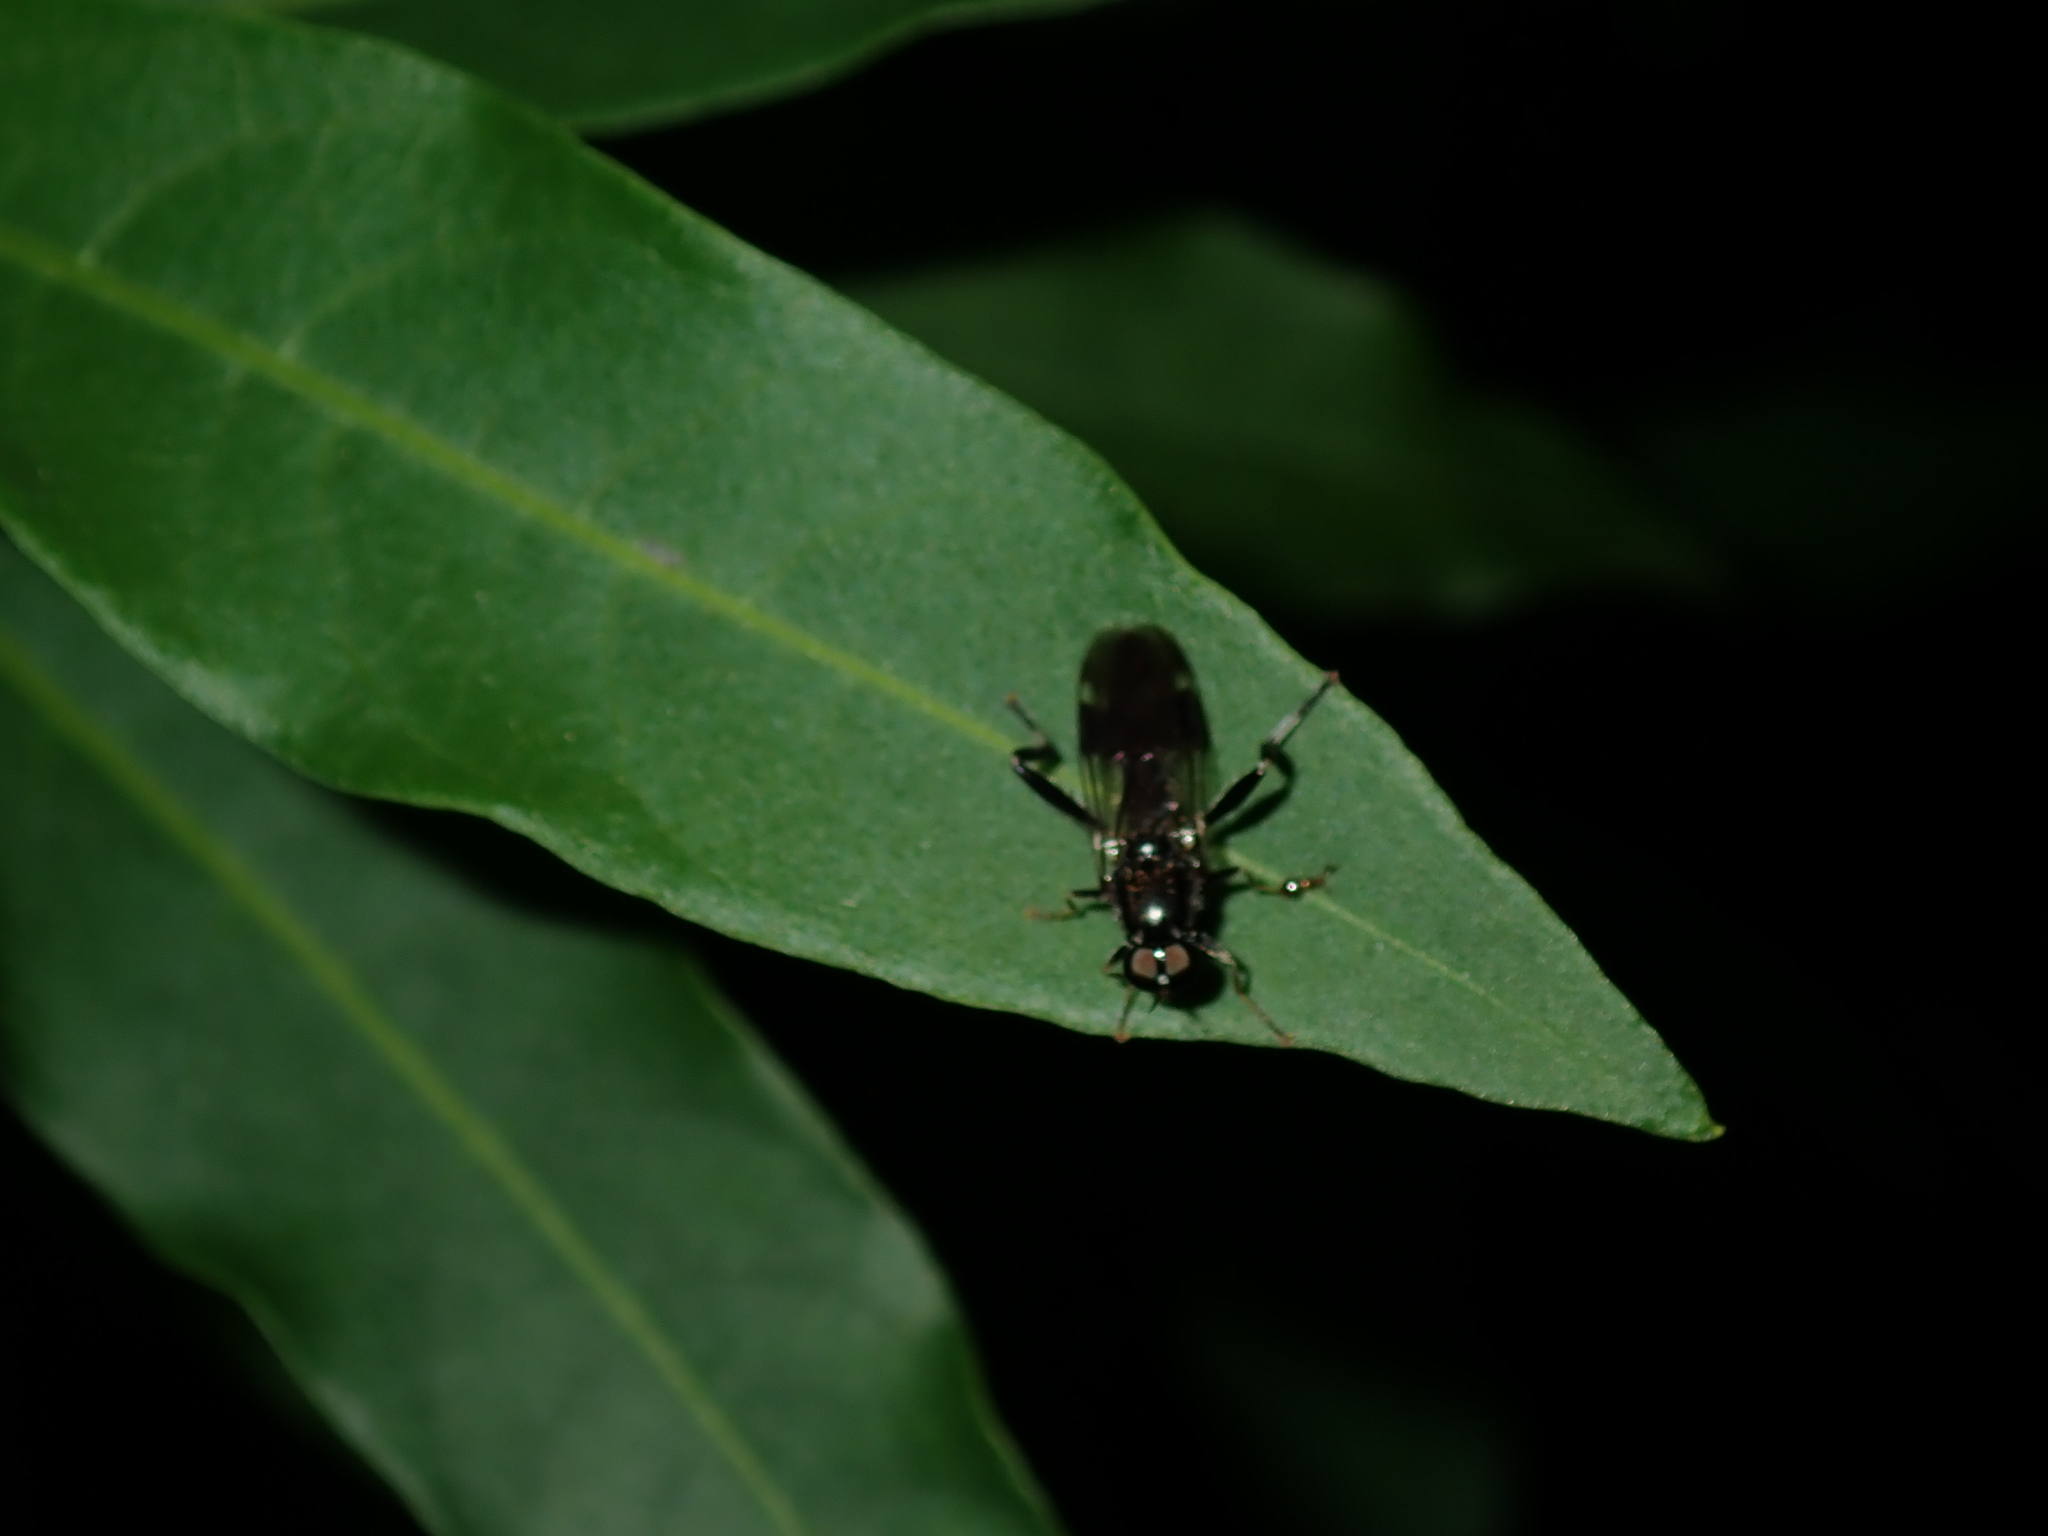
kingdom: Animalia
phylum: Arthropoda
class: Insecta
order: Diptera
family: Stratiomyidae
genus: Exaireta
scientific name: Exaireta spinigera
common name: Blue soldier fly
